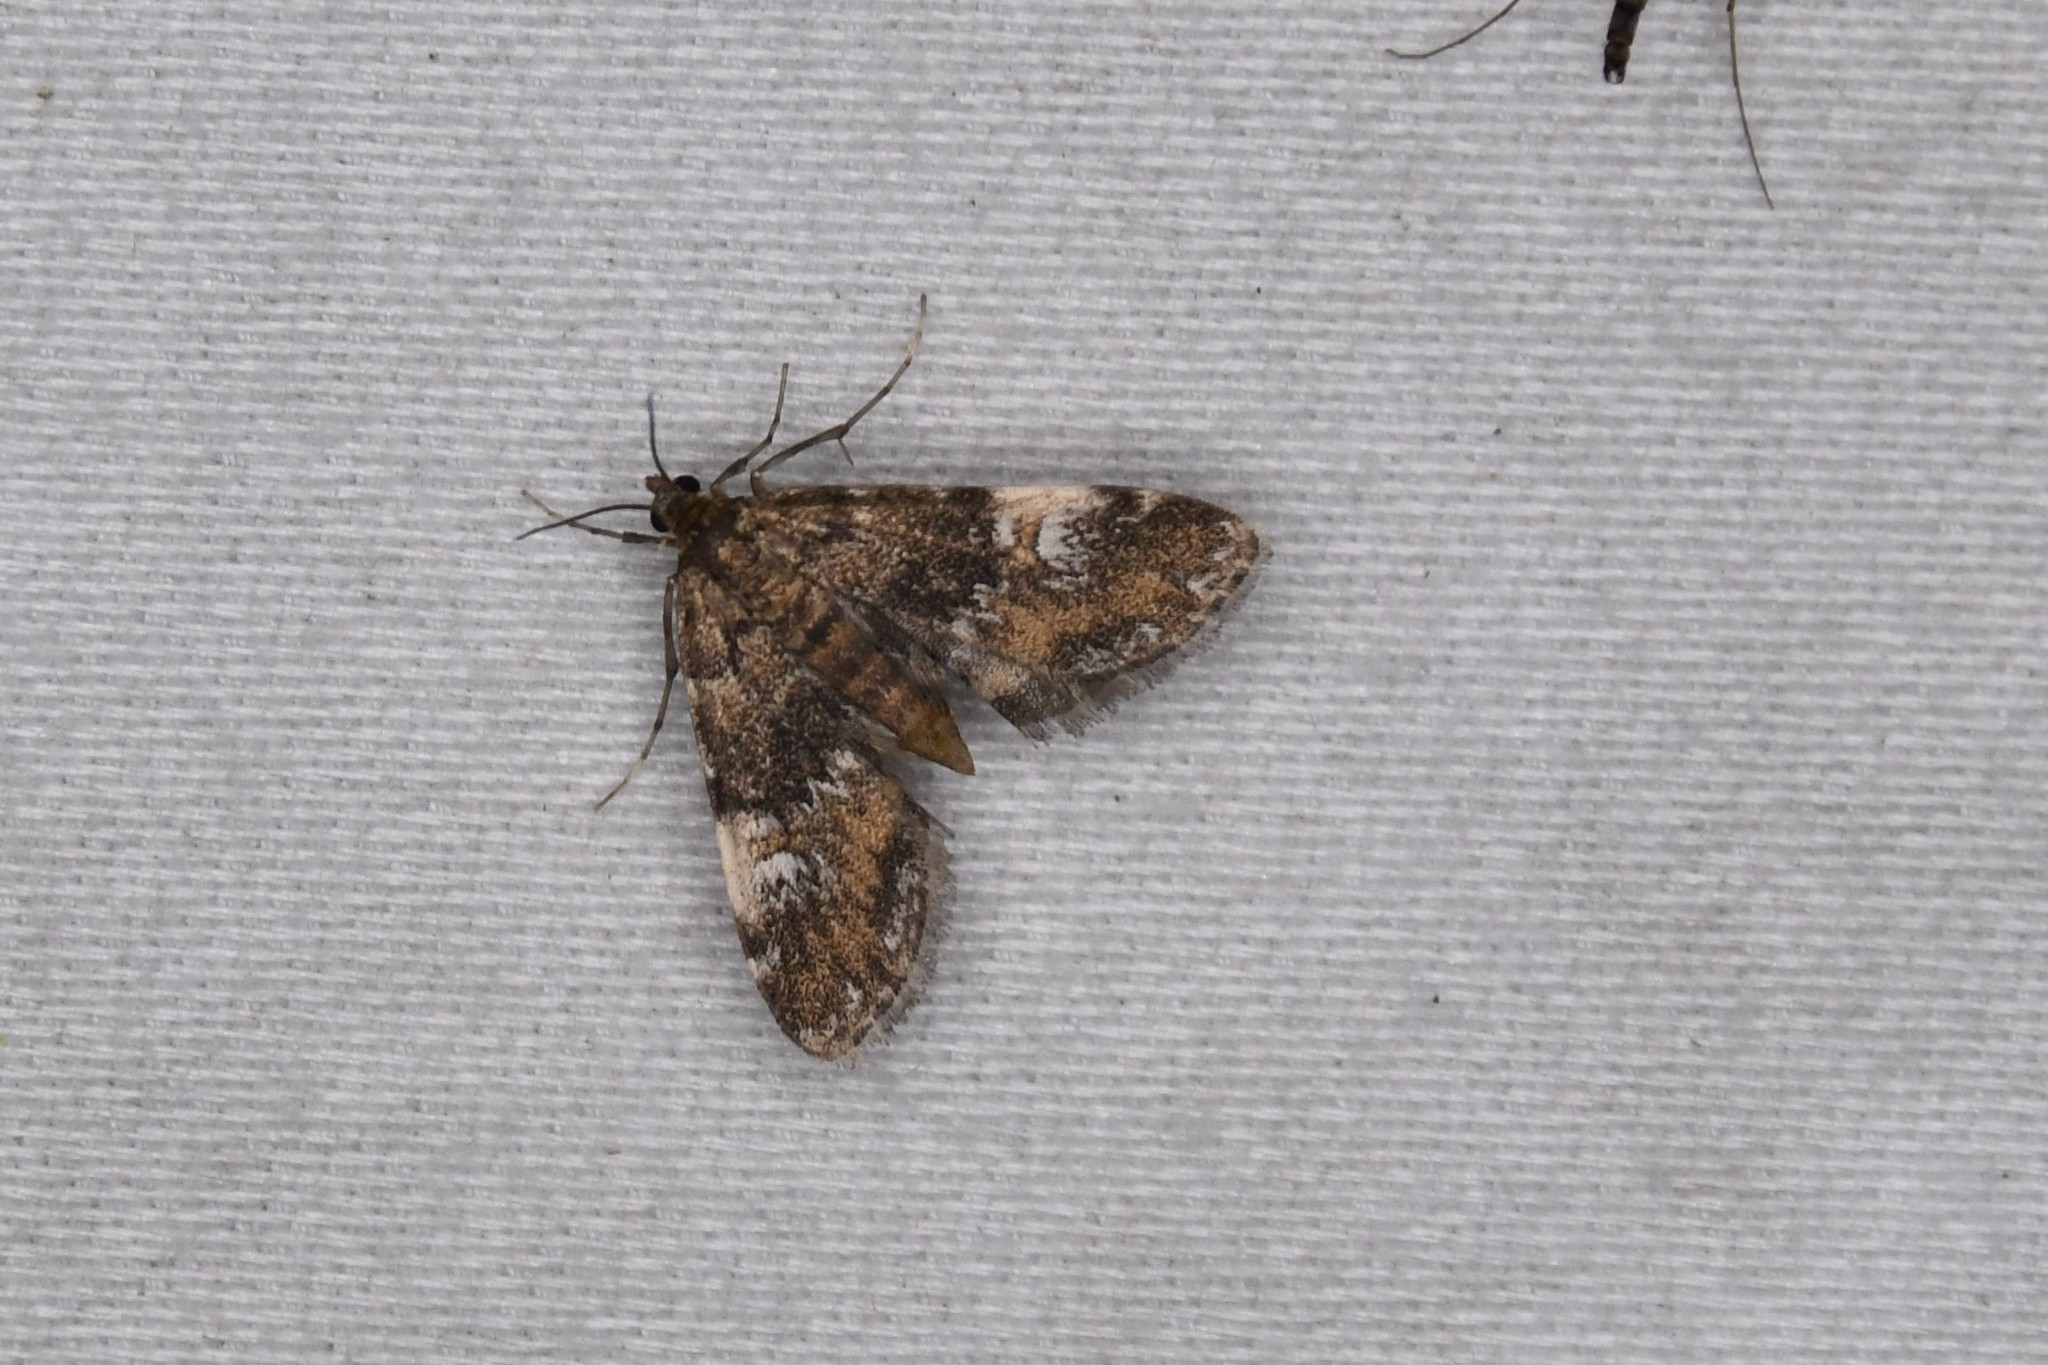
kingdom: Animalia
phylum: Arthropoda
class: Insecta
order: Lepidoptera
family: Crambidae
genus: Elophila
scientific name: Elophila obliteralis
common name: Waterlily leafcutter moth
